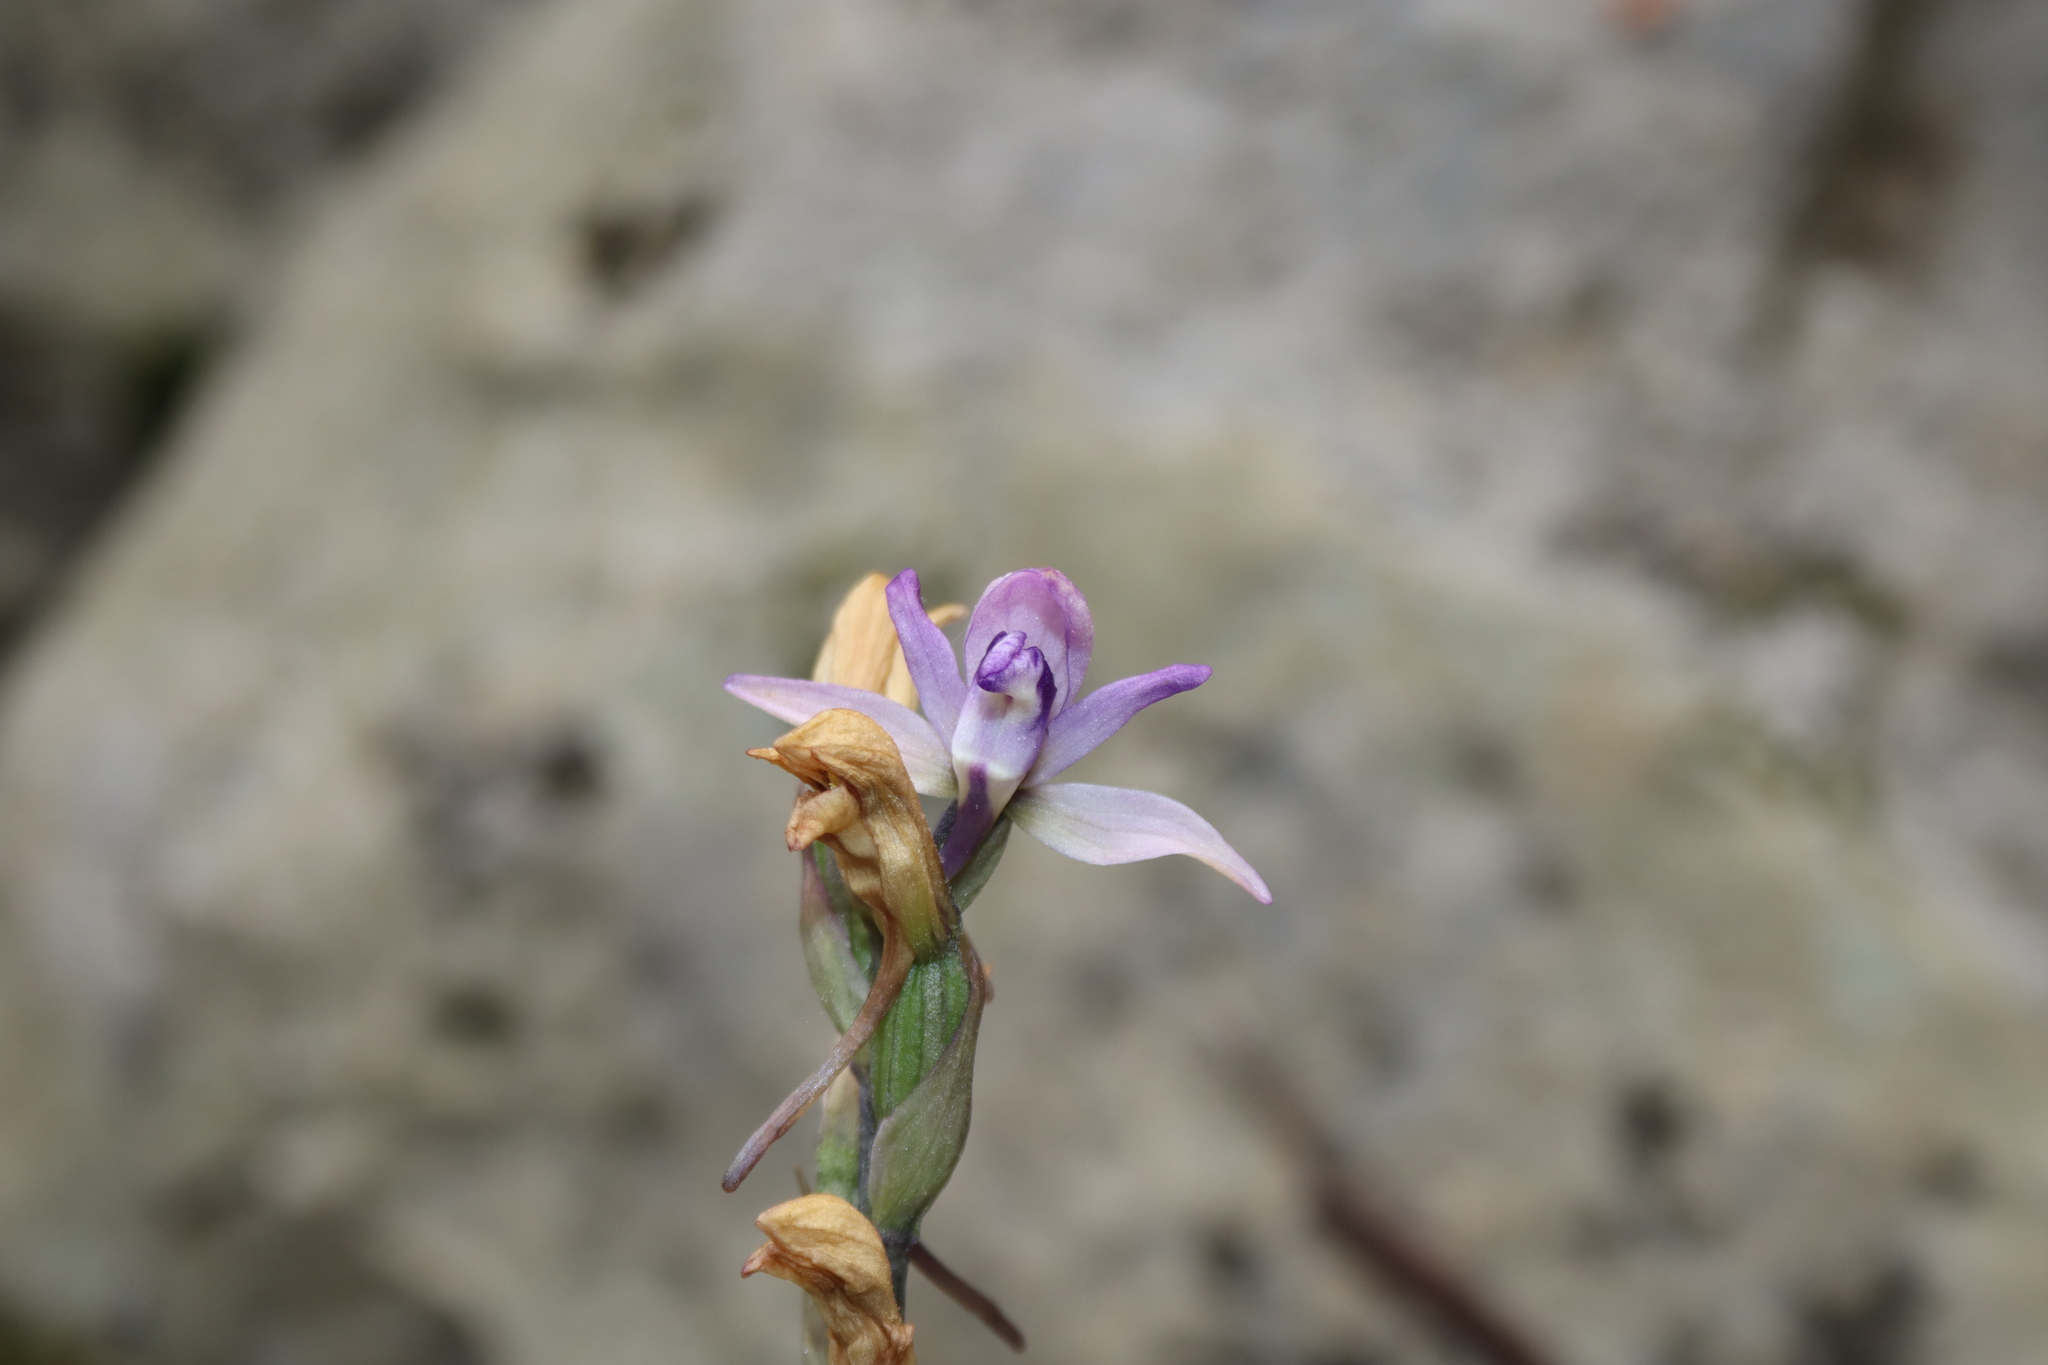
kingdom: Plantae
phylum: Tracheophyta
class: Liliopsida
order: Asparagales
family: Orchidaceae
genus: Limodorum
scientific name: Limodorum abortivum
